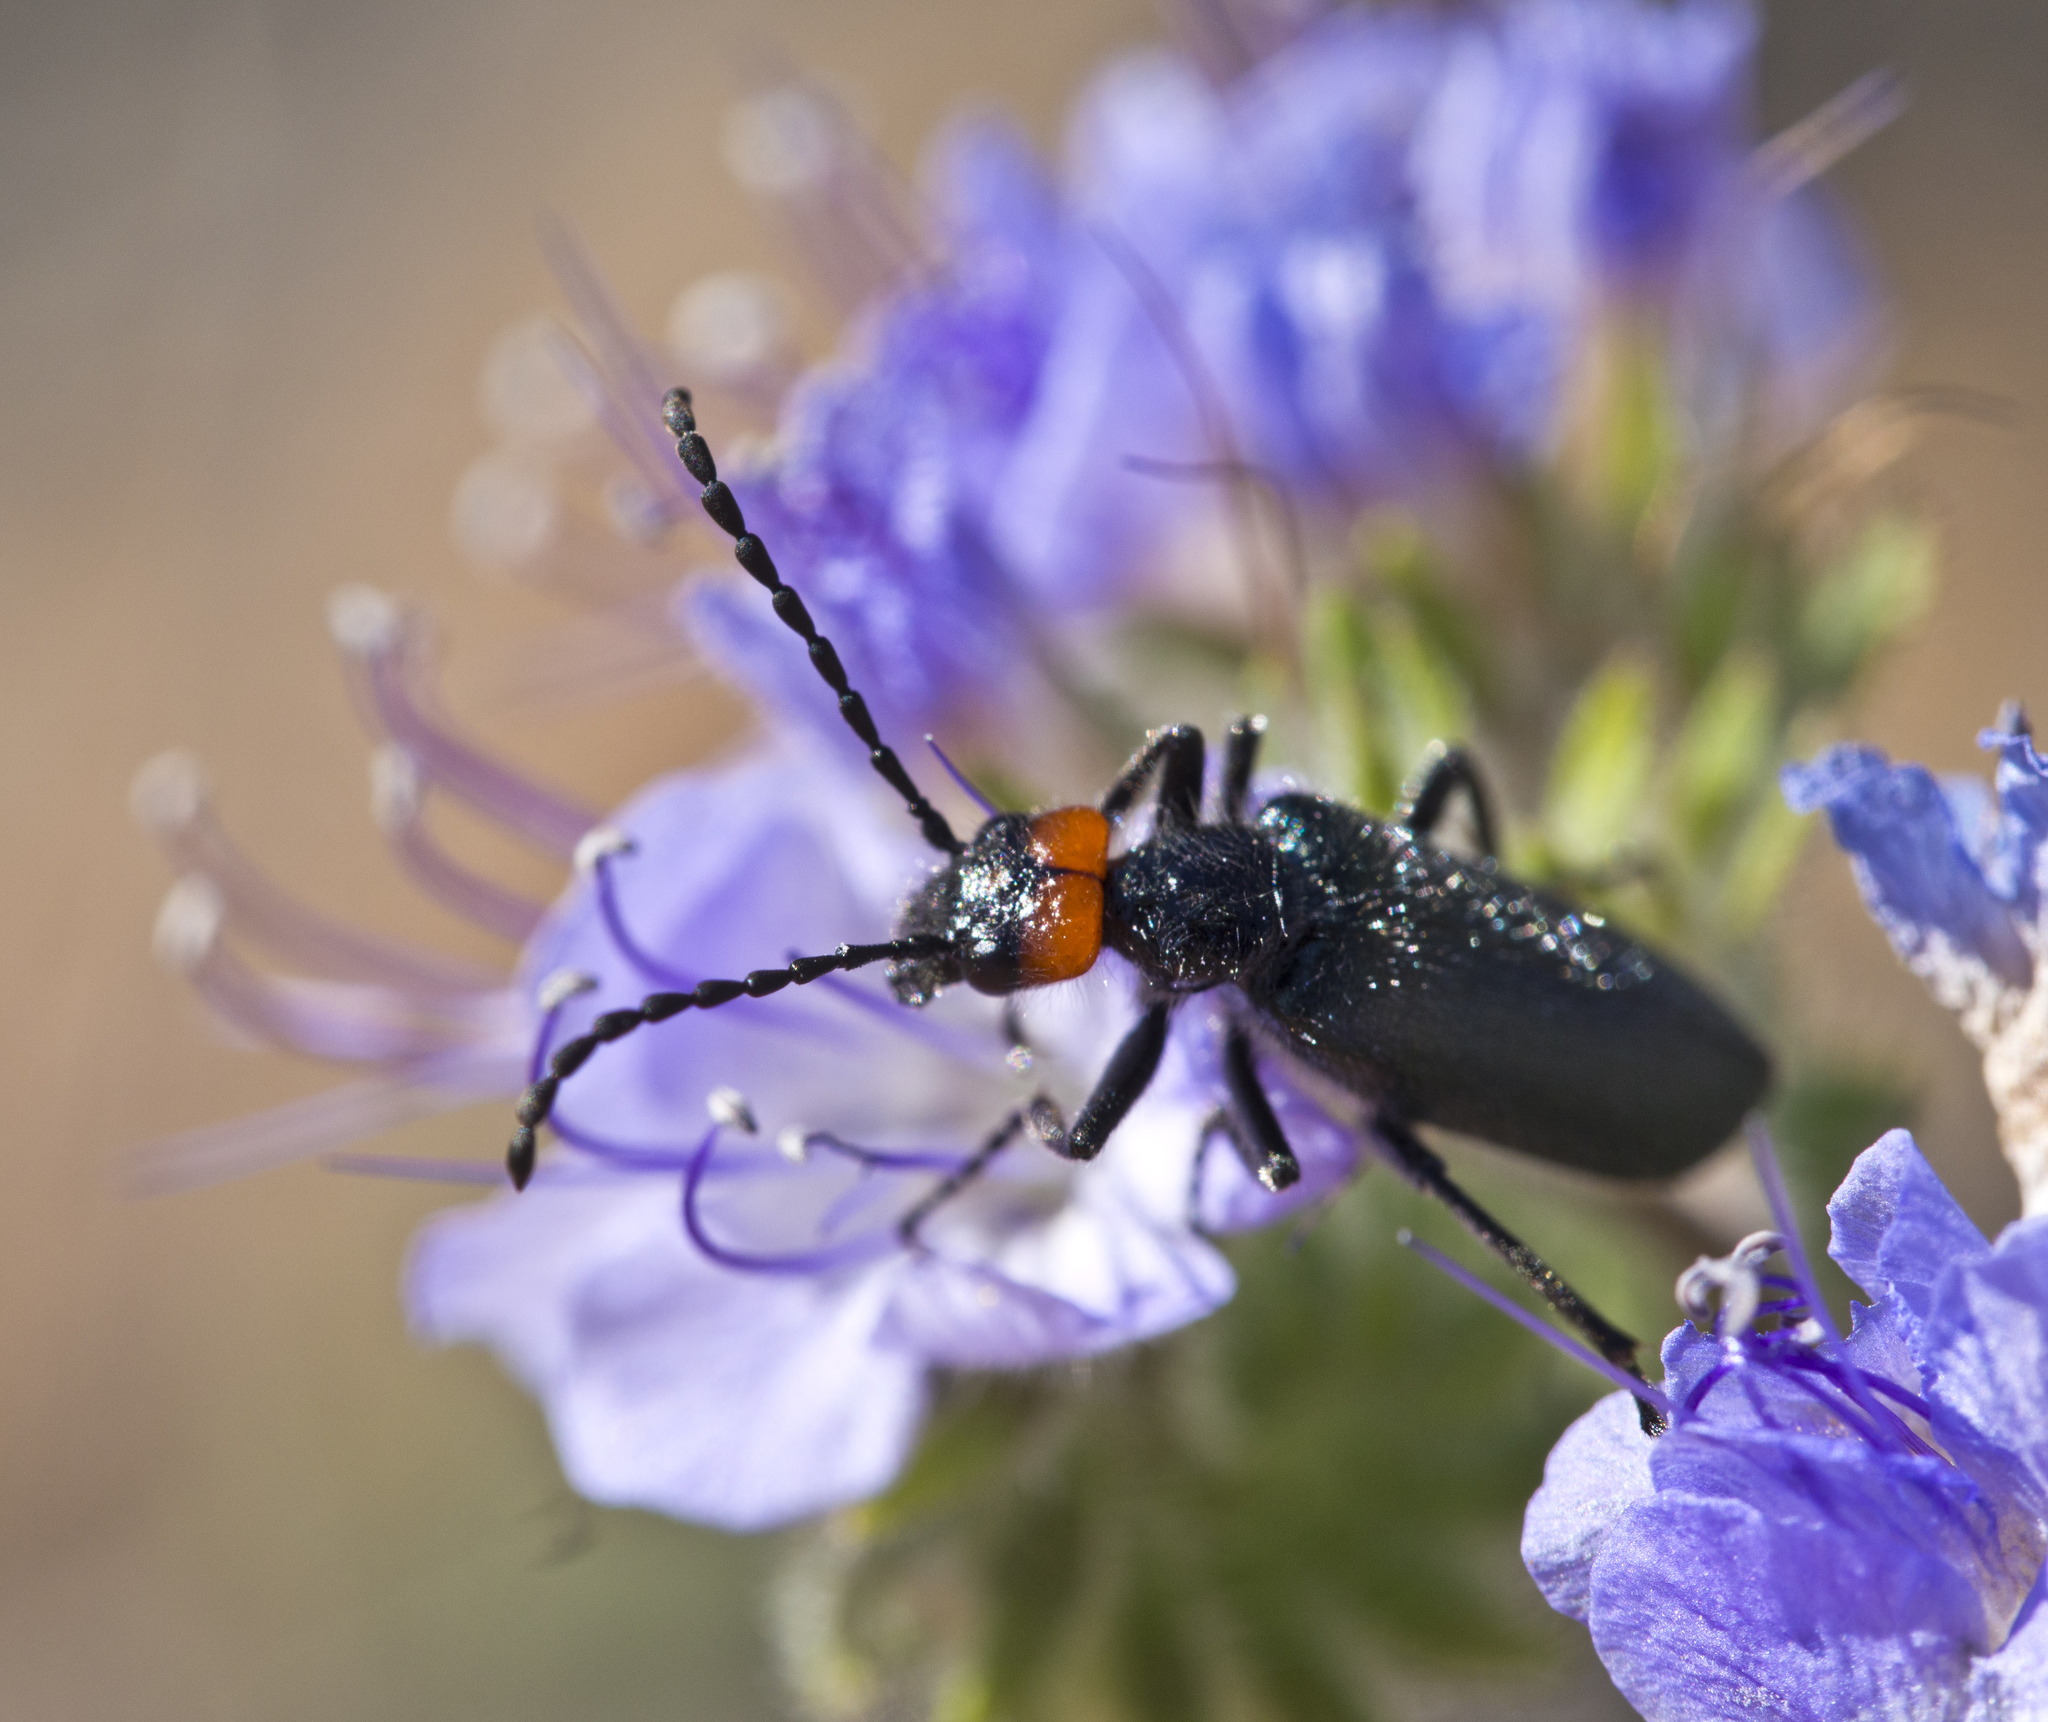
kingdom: Animalia
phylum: Arthropoda
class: Insecta
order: Coleoptera
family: Meloidae
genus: Lytta
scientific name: Lytta auriculata
